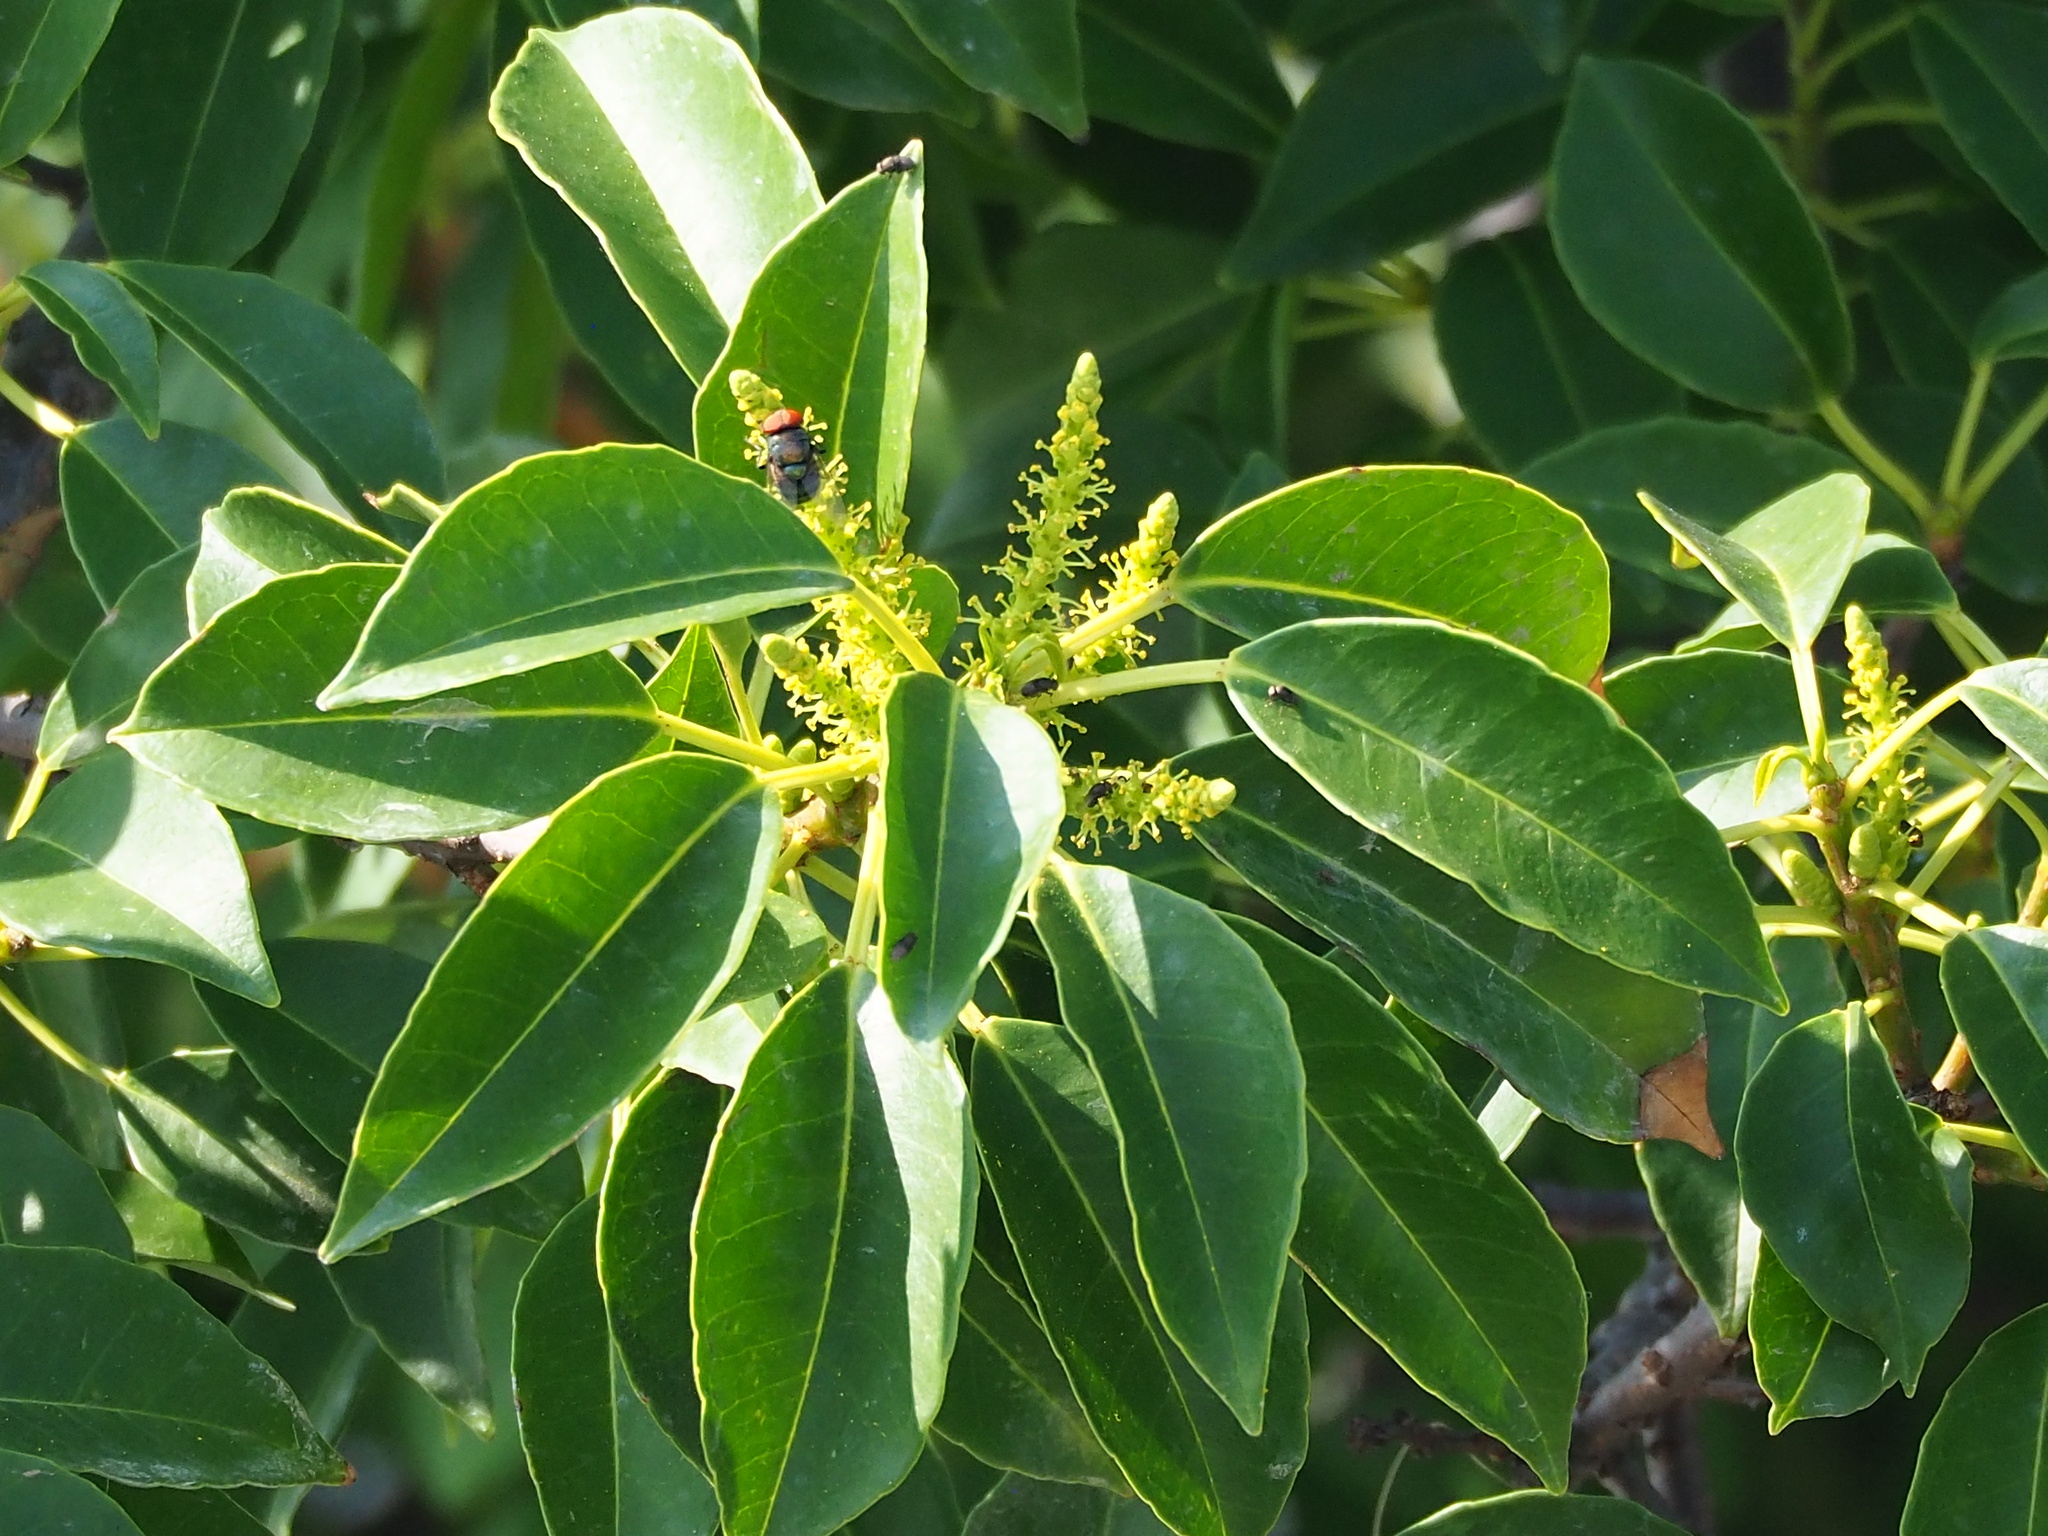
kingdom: Plantae
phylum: Tracheophyta
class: Magnoliopsida
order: Malpighiales
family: Euphorbiaceae
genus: Excoecaria
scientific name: Excoecaria agallocha
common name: River poisontree
